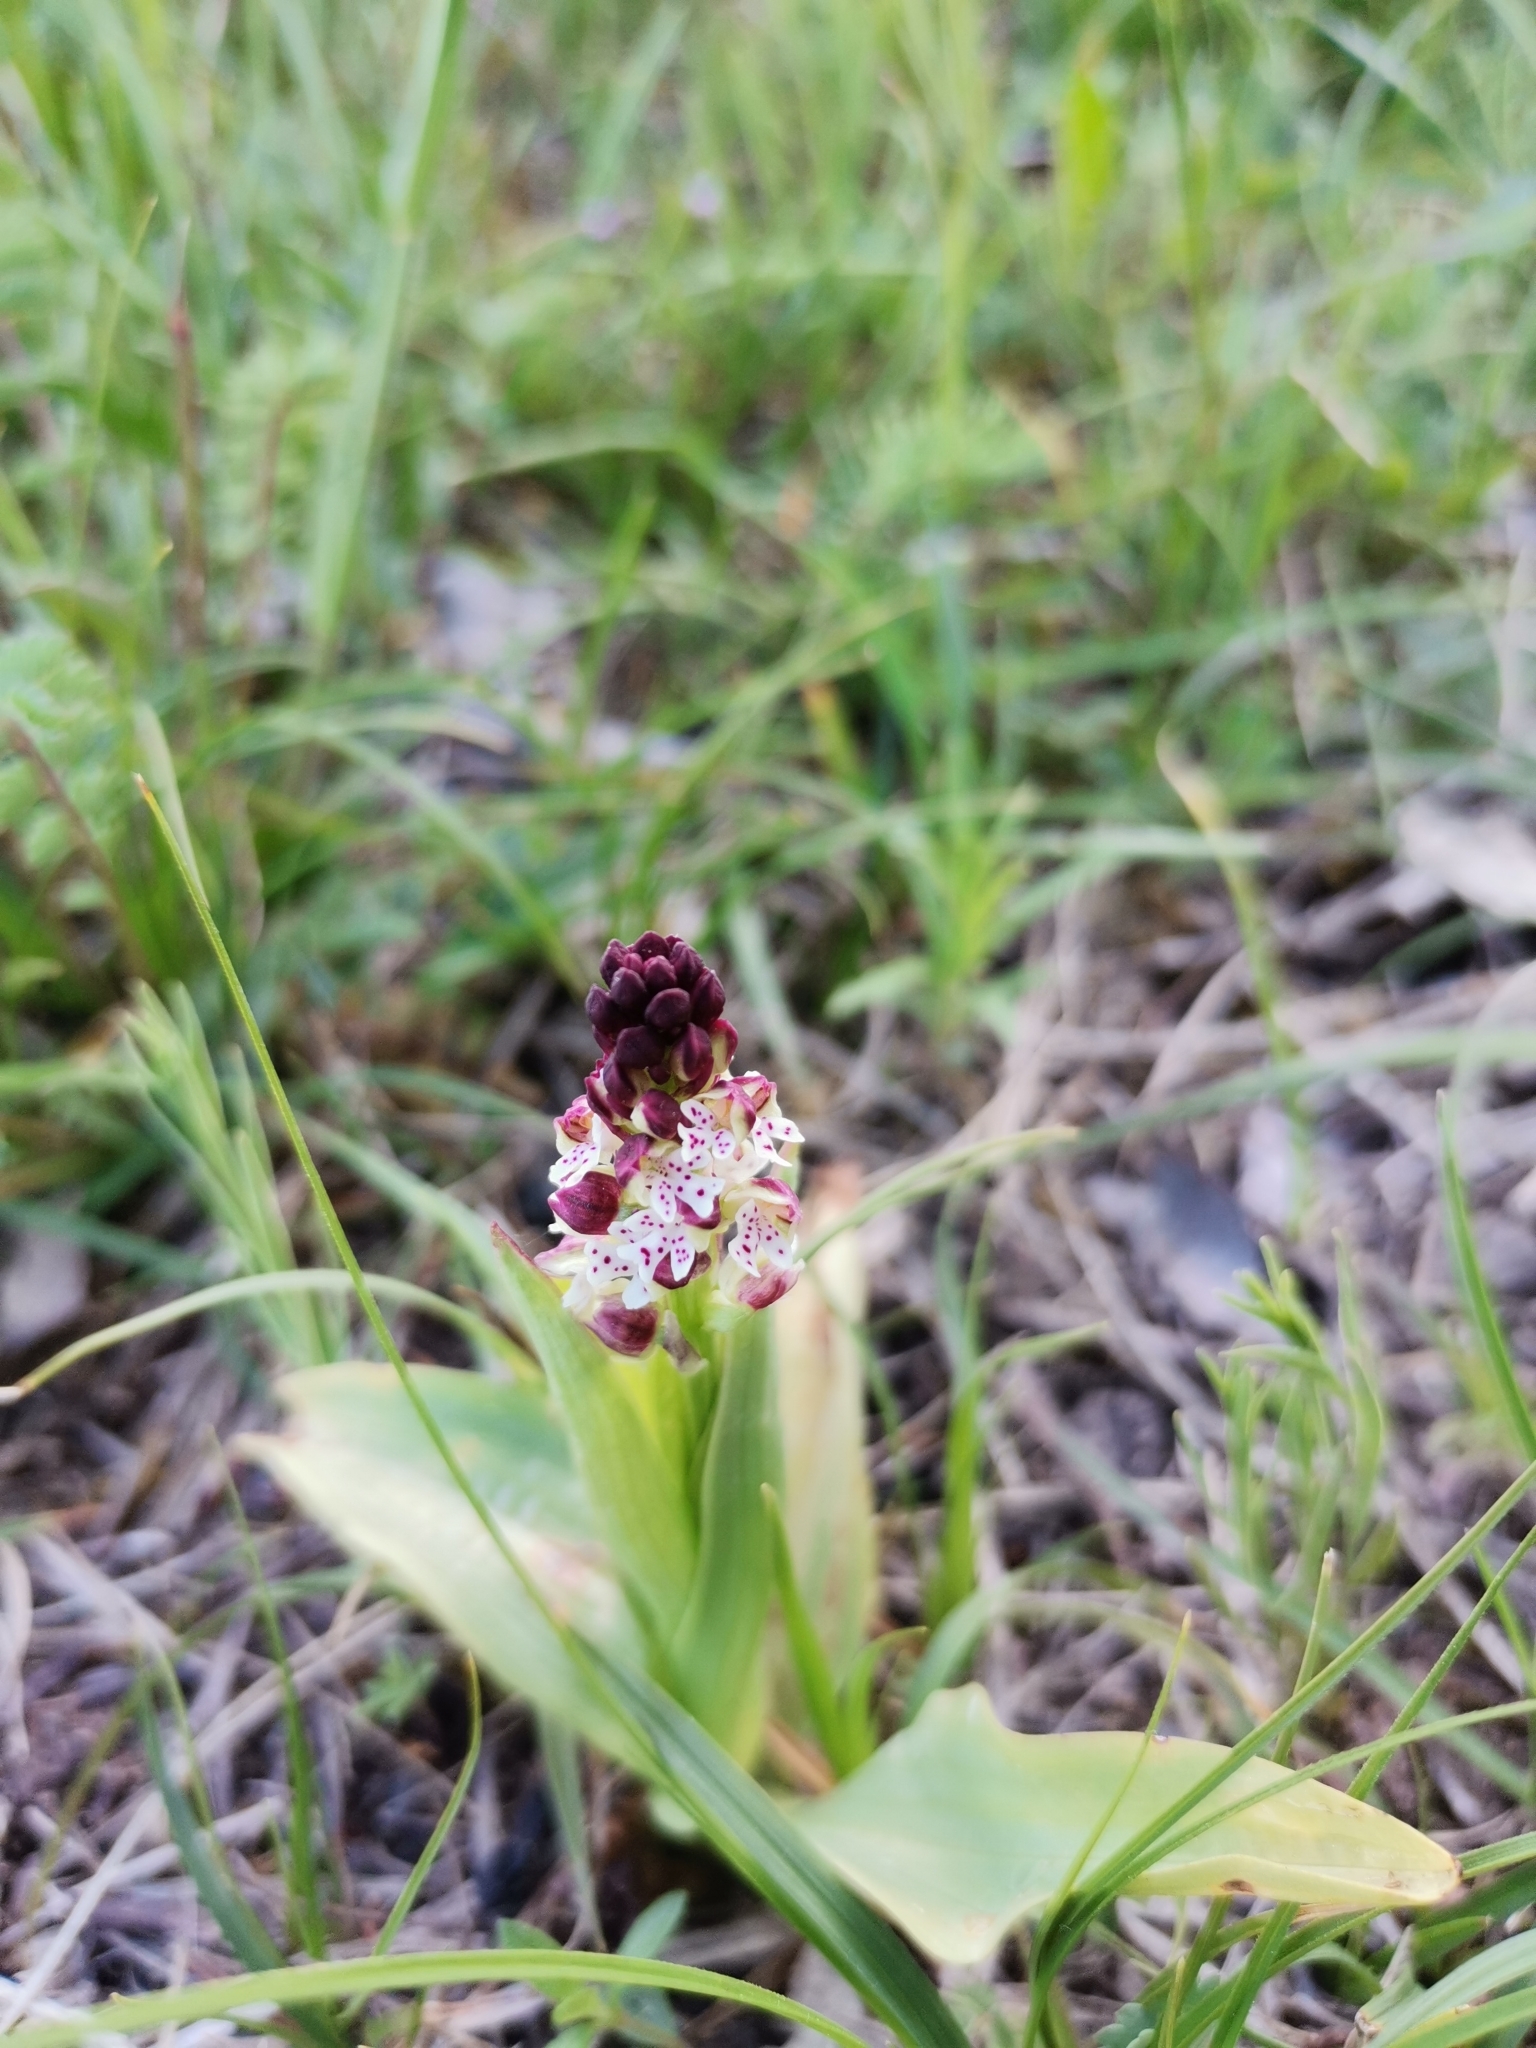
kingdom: Plantae
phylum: Tracheophyta
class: Liliopsida
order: Asparagales
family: Orchidaceae
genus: Neotinea
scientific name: Neotinea ustulata
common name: Burnt orchid
